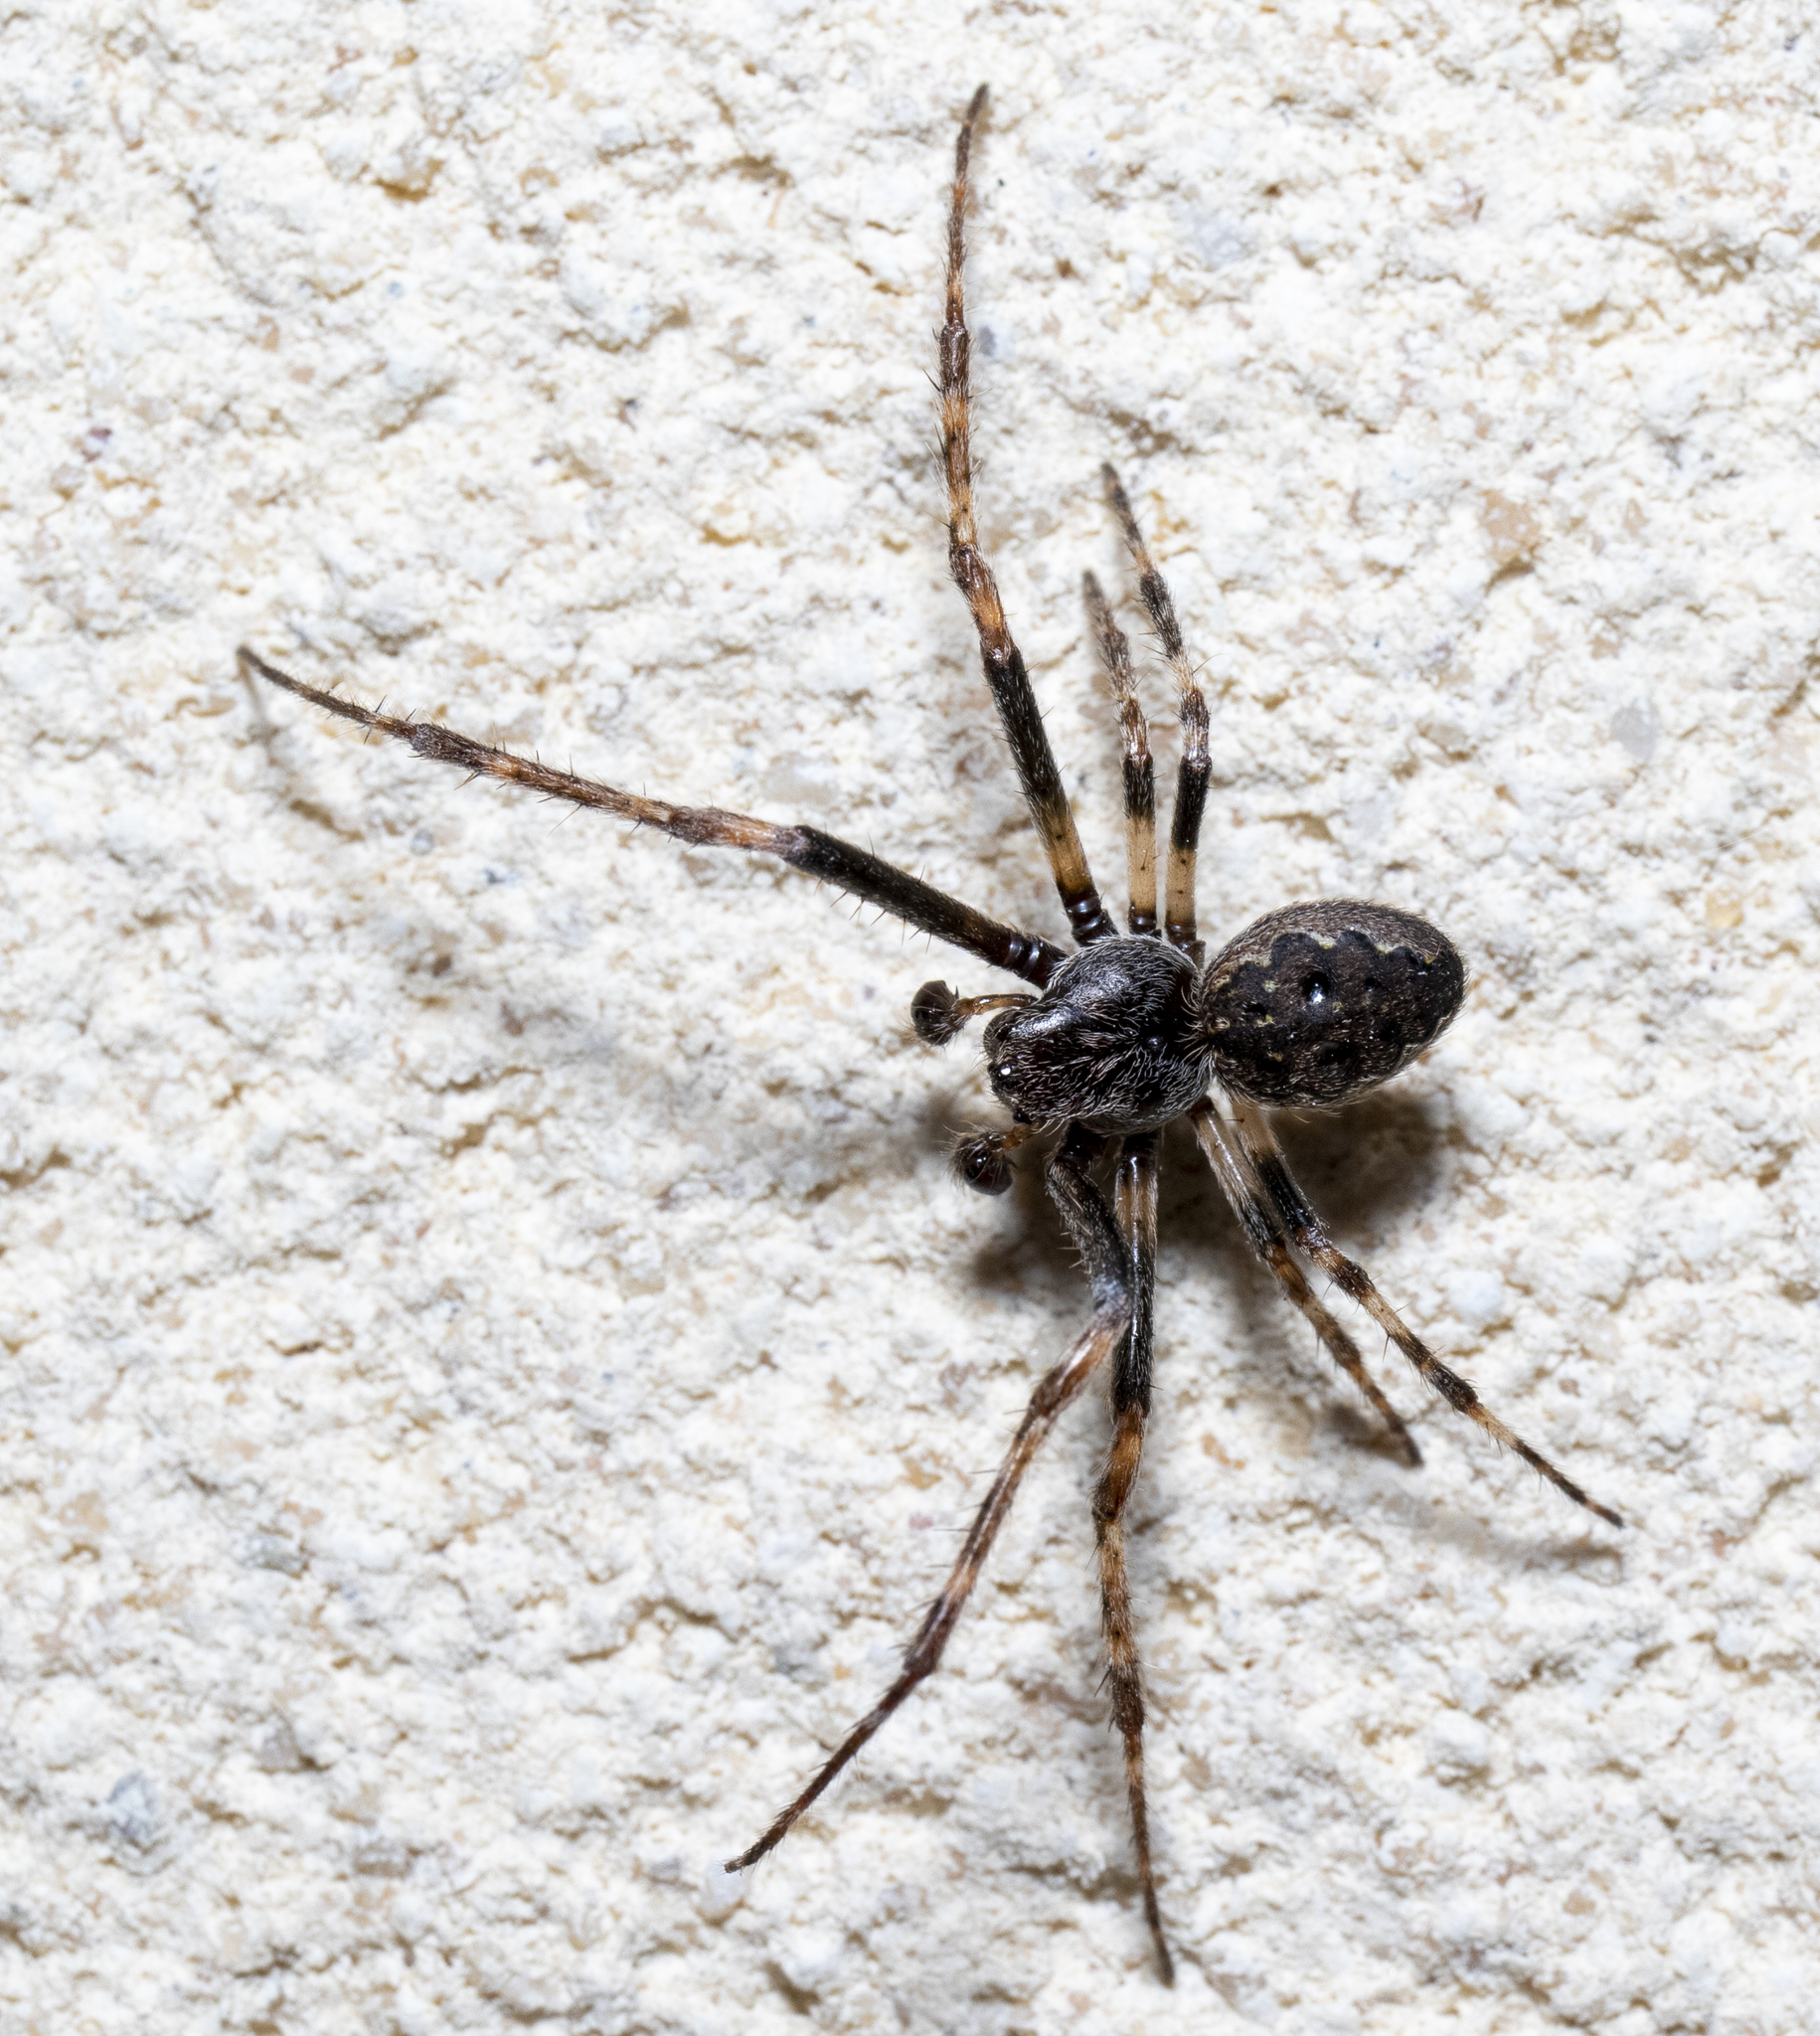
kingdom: Animalia
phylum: Arthropoda
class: Arachnida
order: Araneae
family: Araneidae
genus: Nuctenea
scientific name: Nuctenea umbratica
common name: Toad spider
